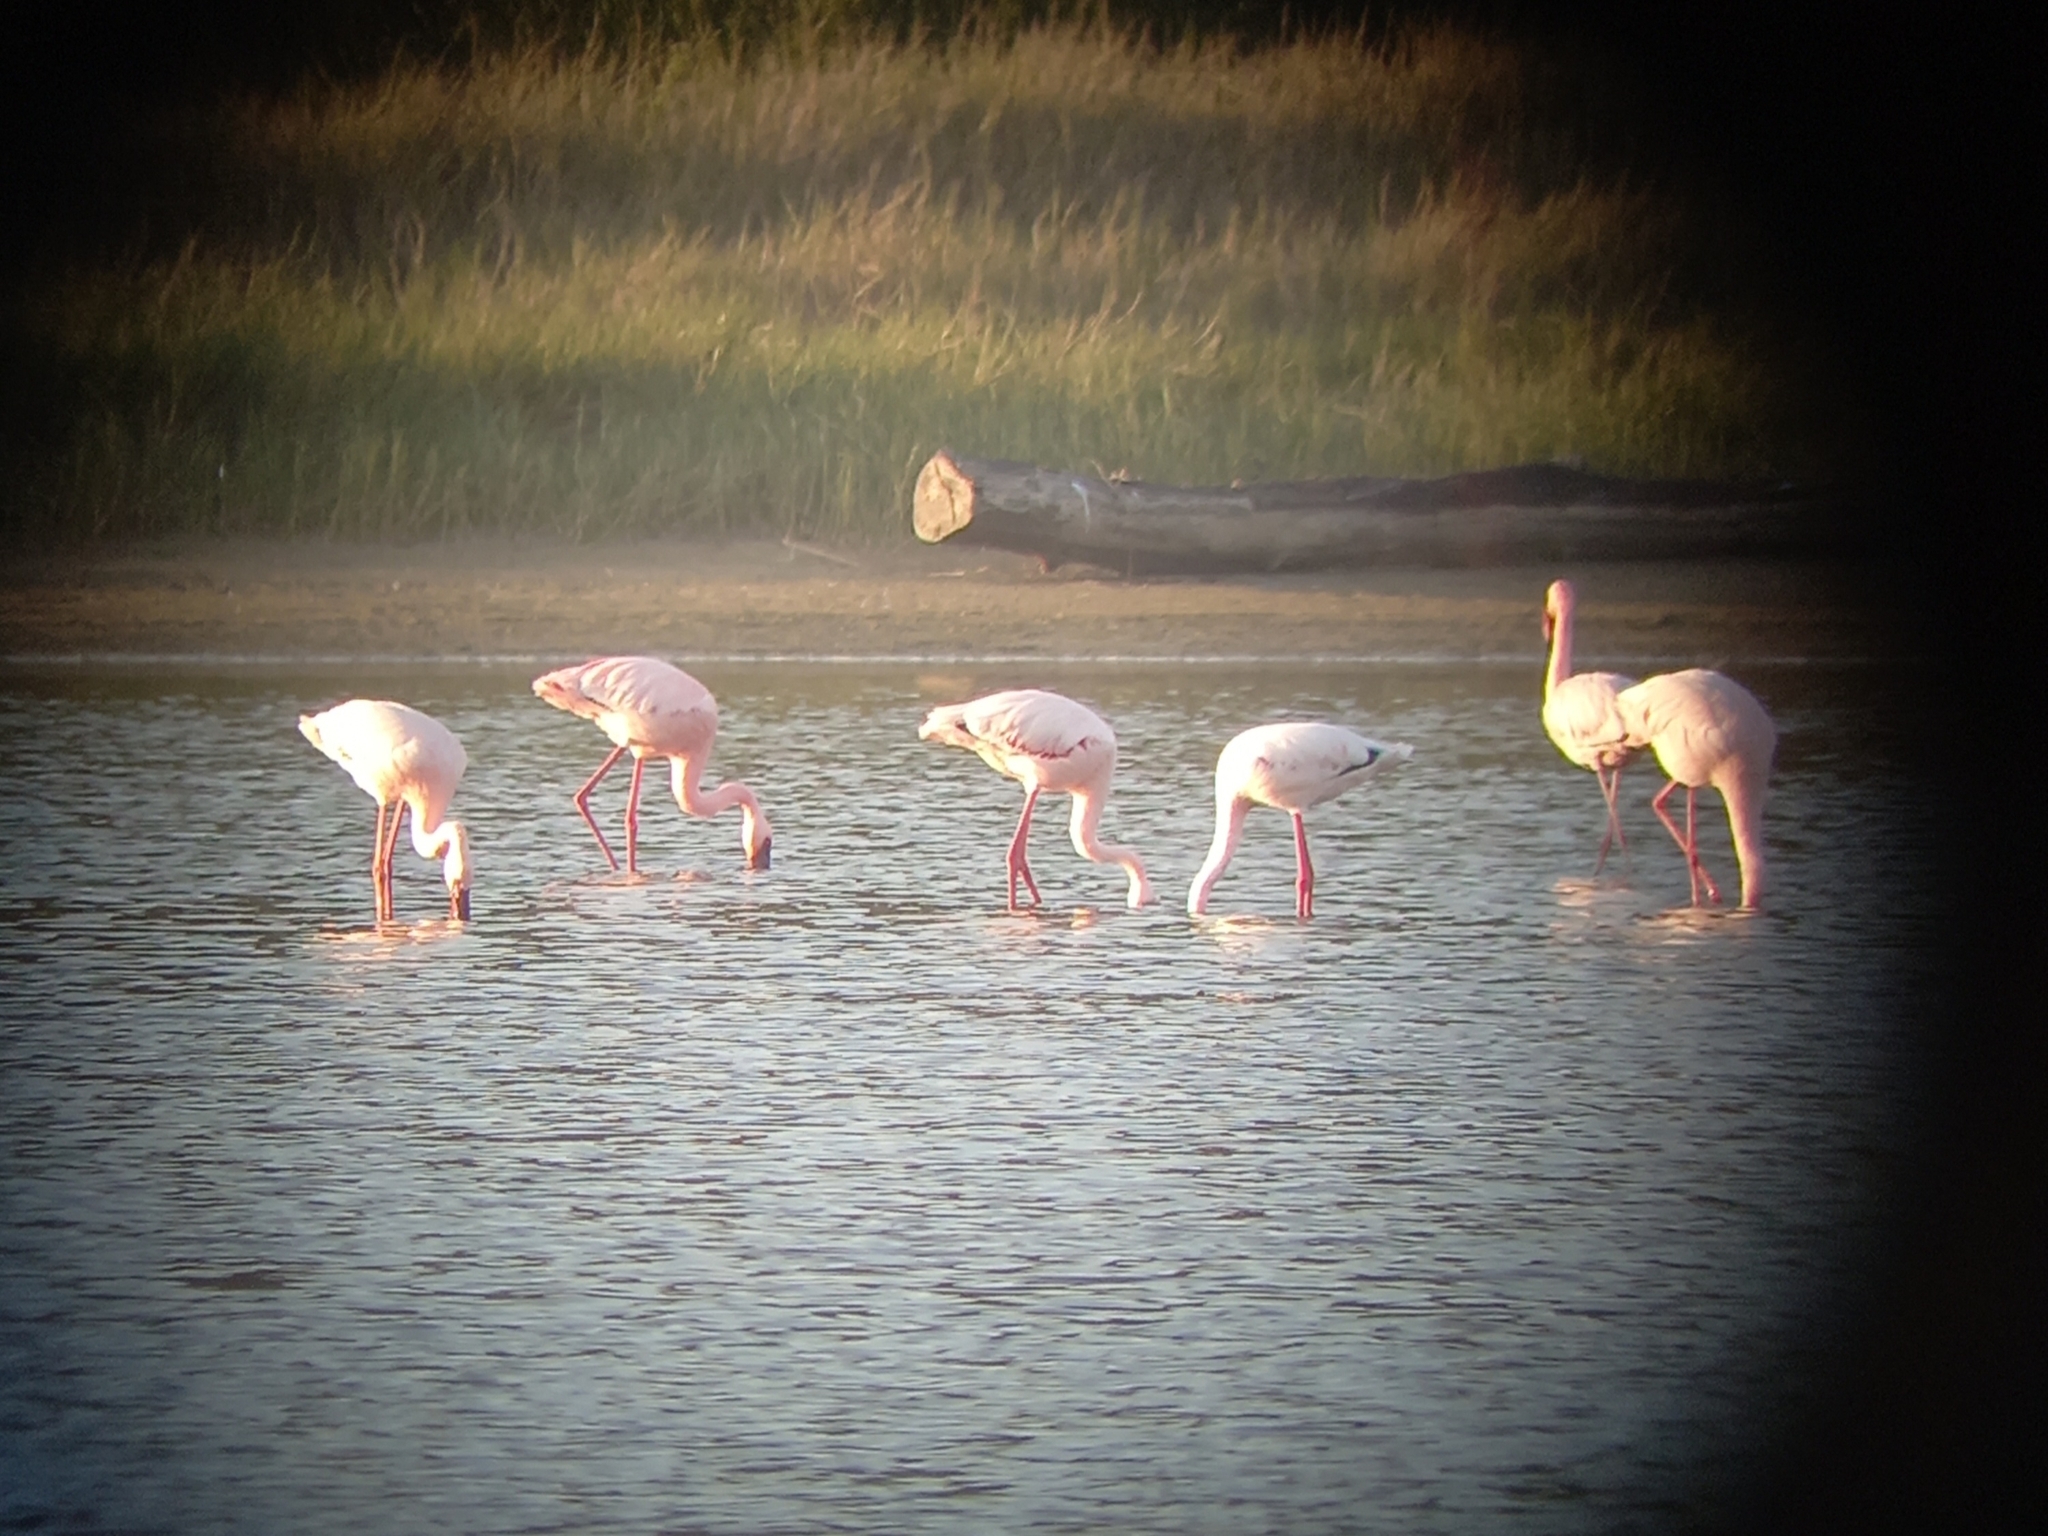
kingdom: Animalia
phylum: Chordata
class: Aves
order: Phoenicopteriformes
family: Phoenicopteridae
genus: Phoeniconaias
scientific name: Phoeniconaias minor
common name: Lesser flamingo
